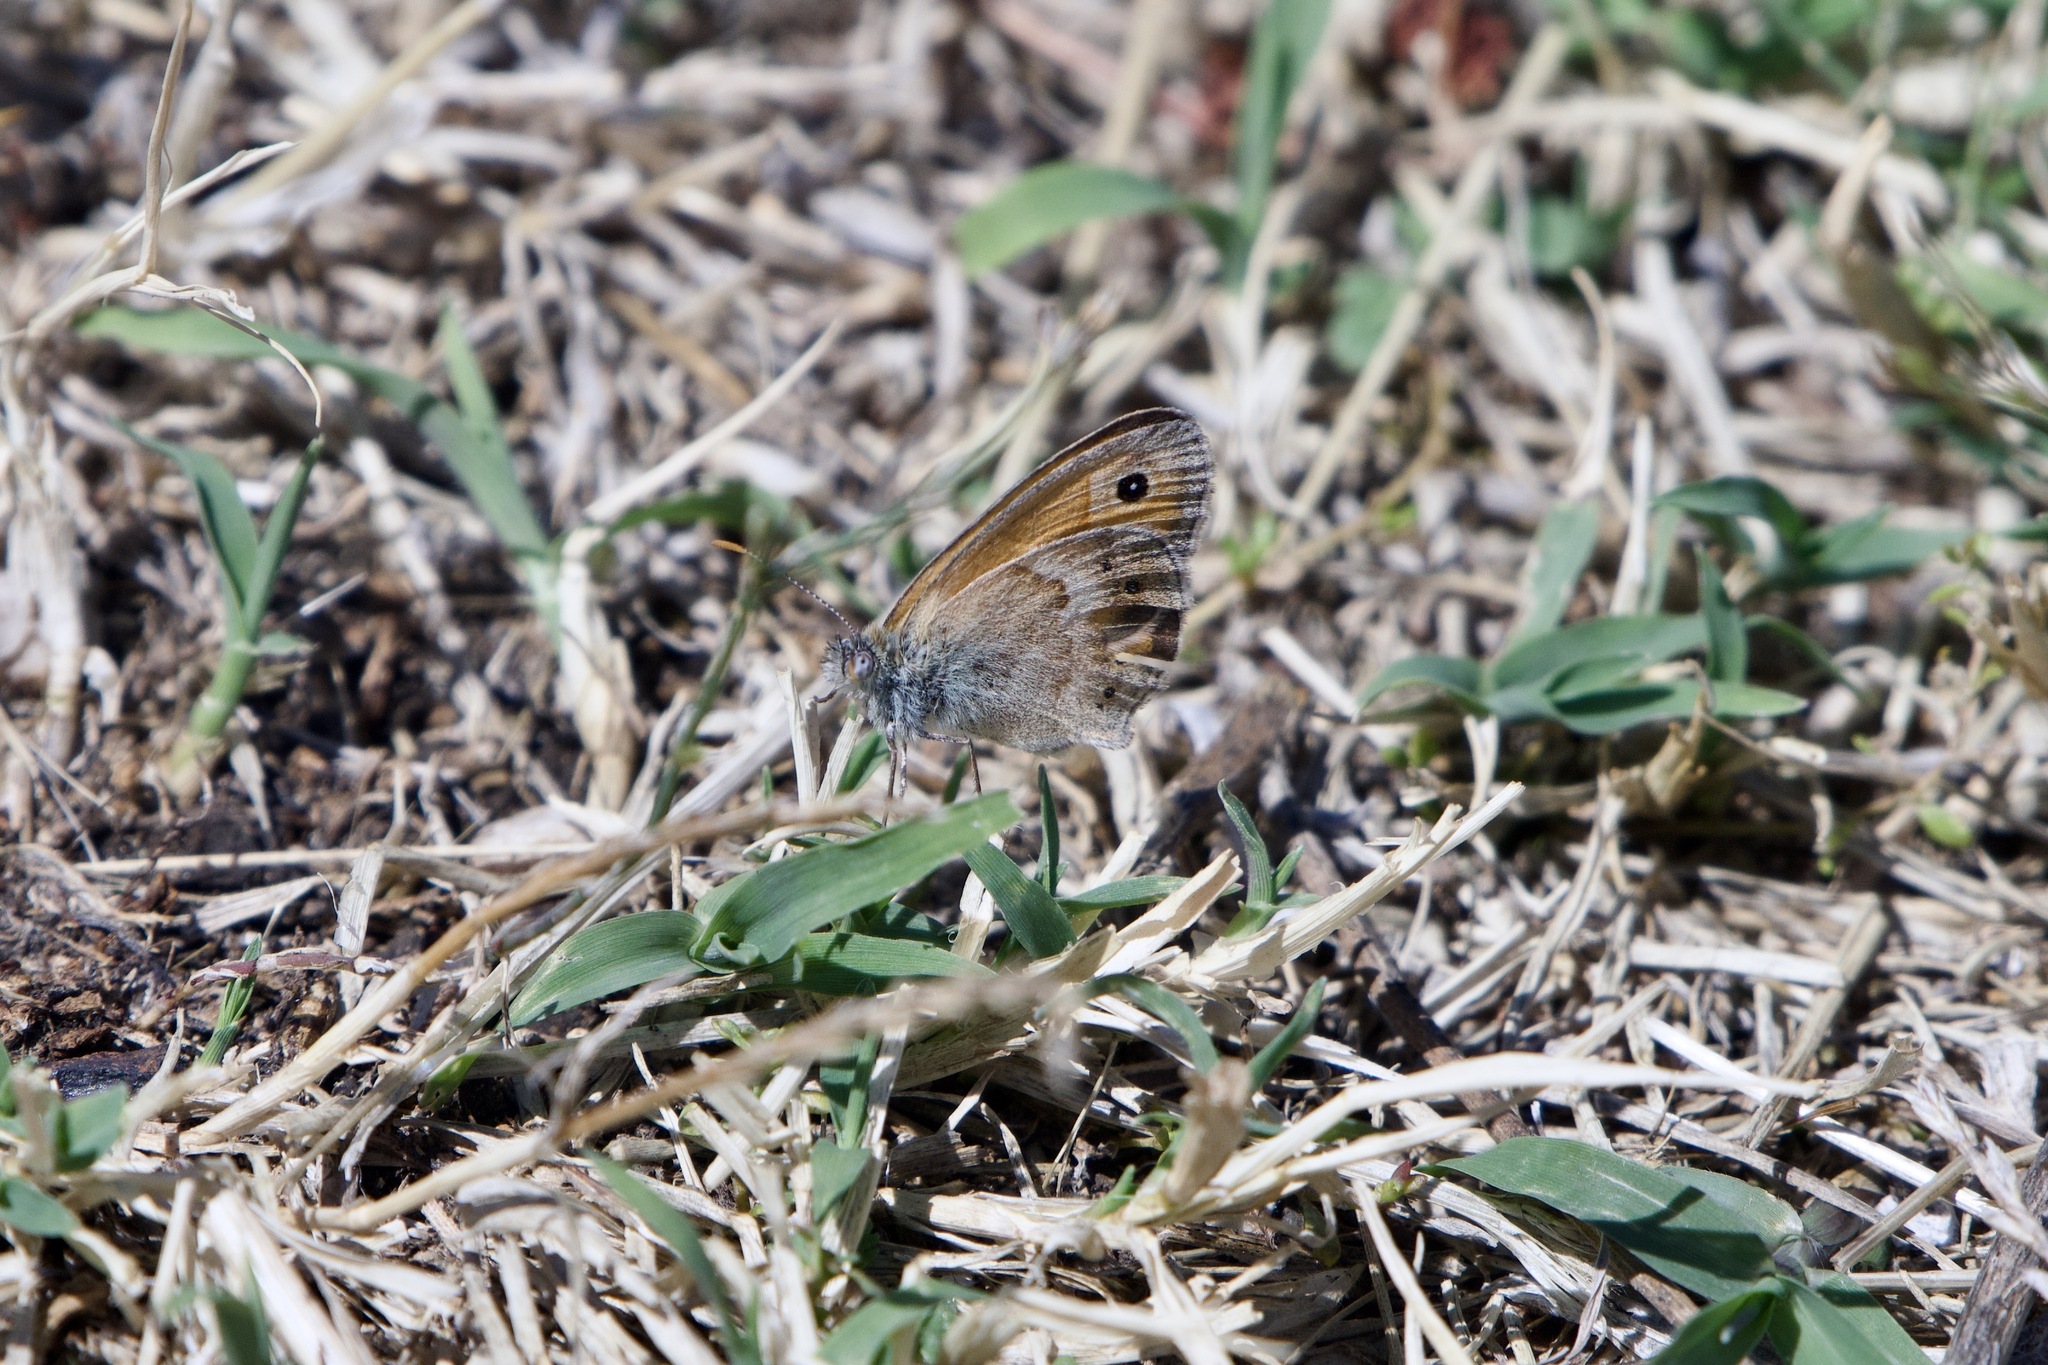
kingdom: Animalia
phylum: Arthropoda
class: Insecta
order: Lepidoptera
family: Nymphalidae
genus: Coenonympha
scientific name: Coenonympha pamphilus
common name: Small heath
